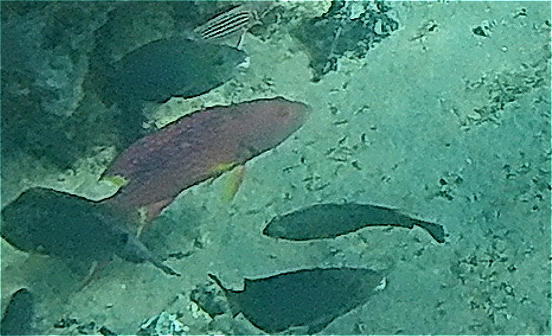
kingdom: Animalia
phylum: Chordata
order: Perciformes
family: Serranidae
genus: Variola
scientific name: Variola louti
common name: Yellow-edged lyretail
